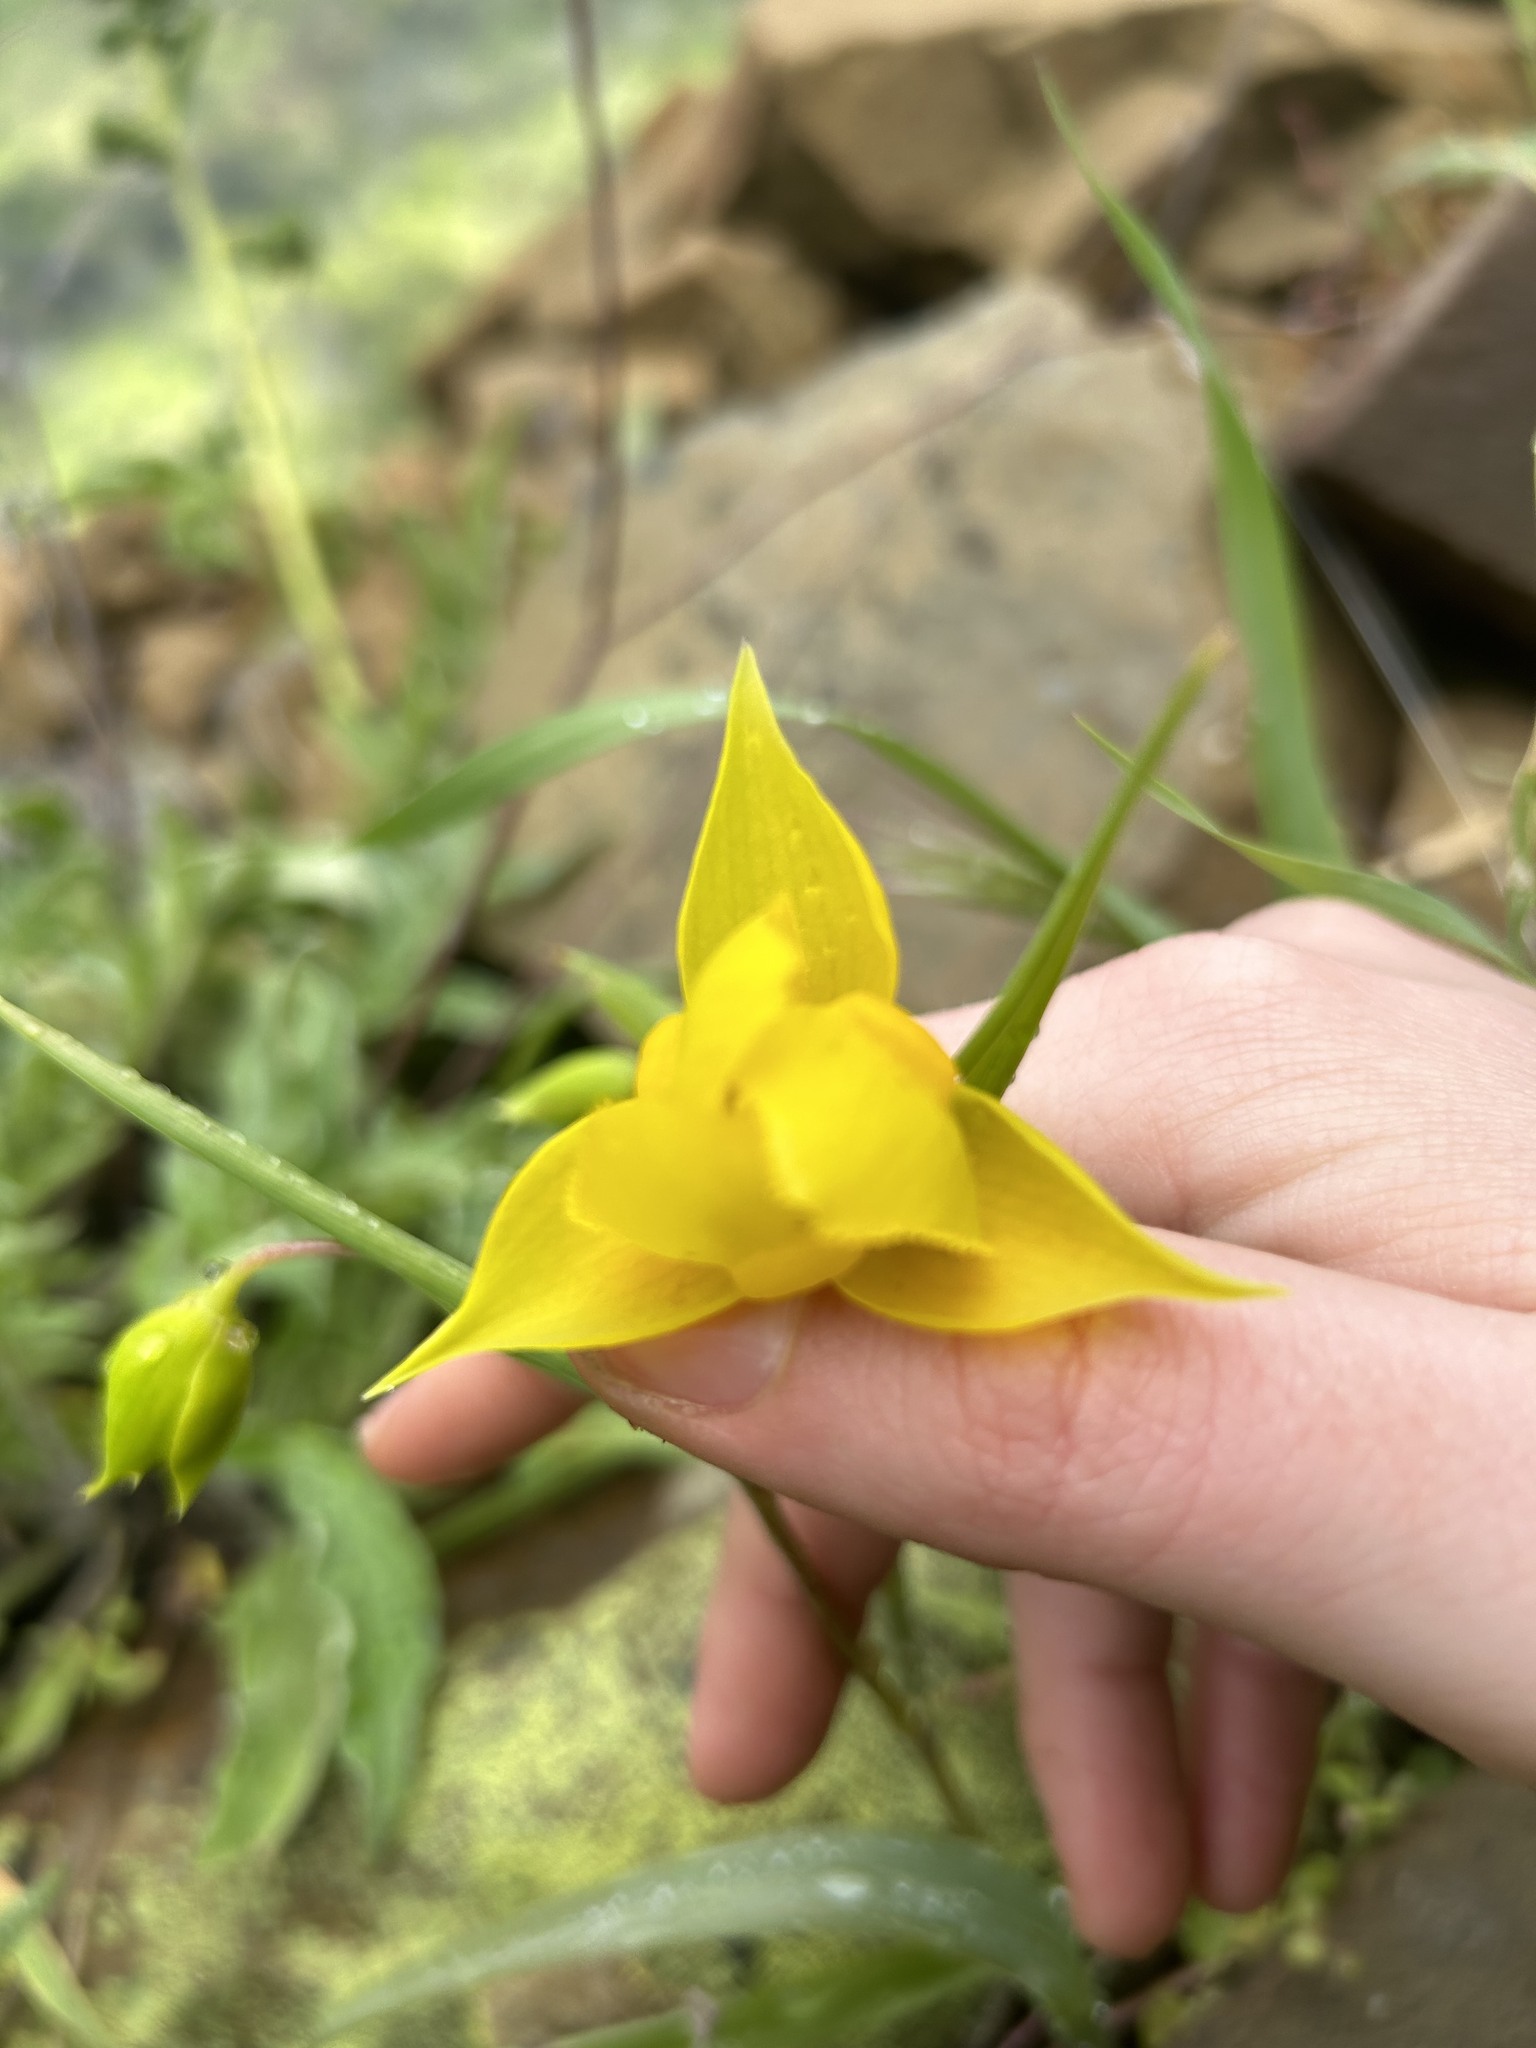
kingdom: Plantae
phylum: Tracheophyta
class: Liliopsida
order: Liliales
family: Liliaceae
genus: Calochortus
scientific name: Calochortus amabilis
